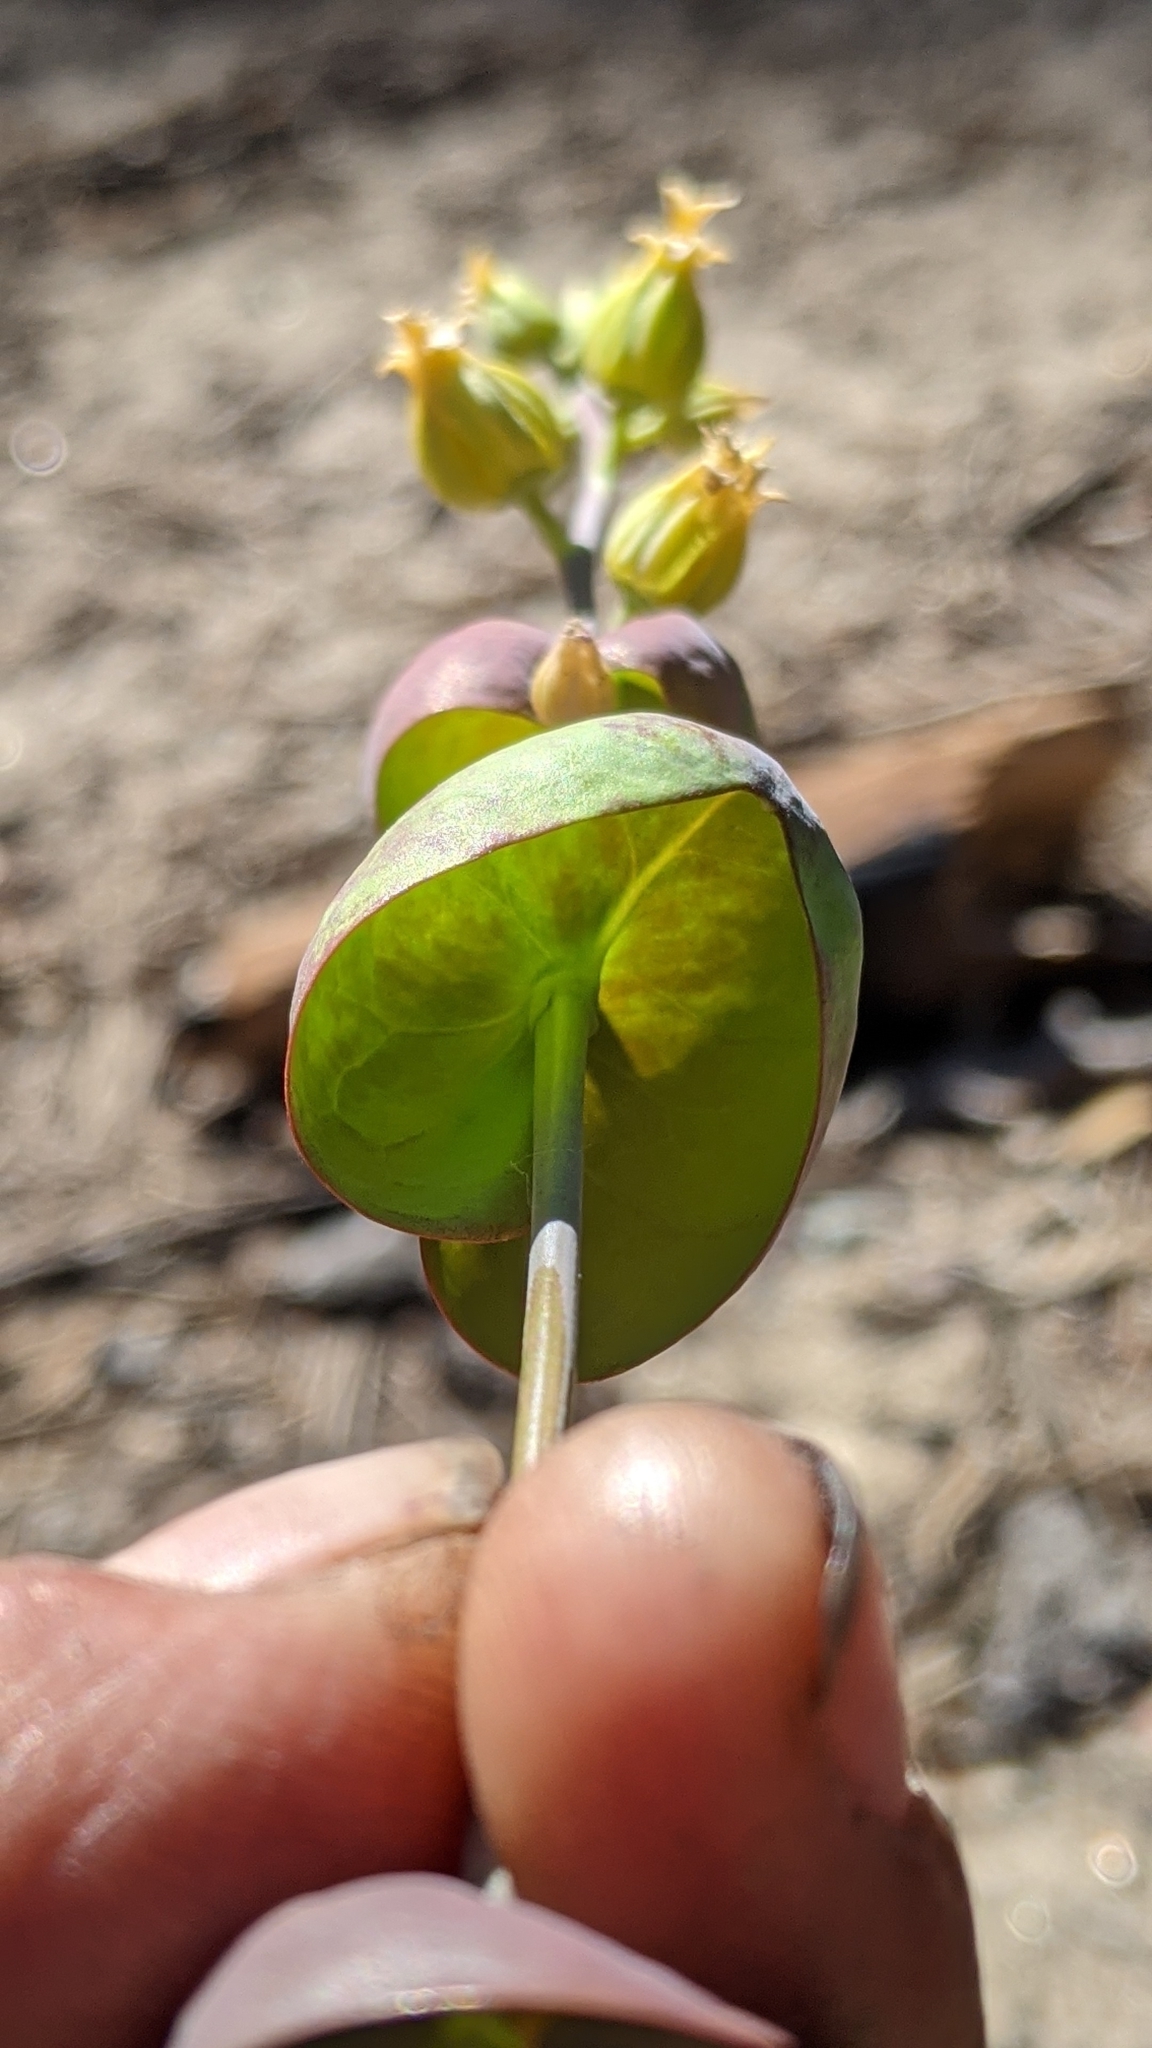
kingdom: Plantae
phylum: Tracheophyta
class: Magnoliopsida
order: Brassicales
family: Brassicaceae
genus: Streptanthus
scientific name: Streptanthus tortuosus
